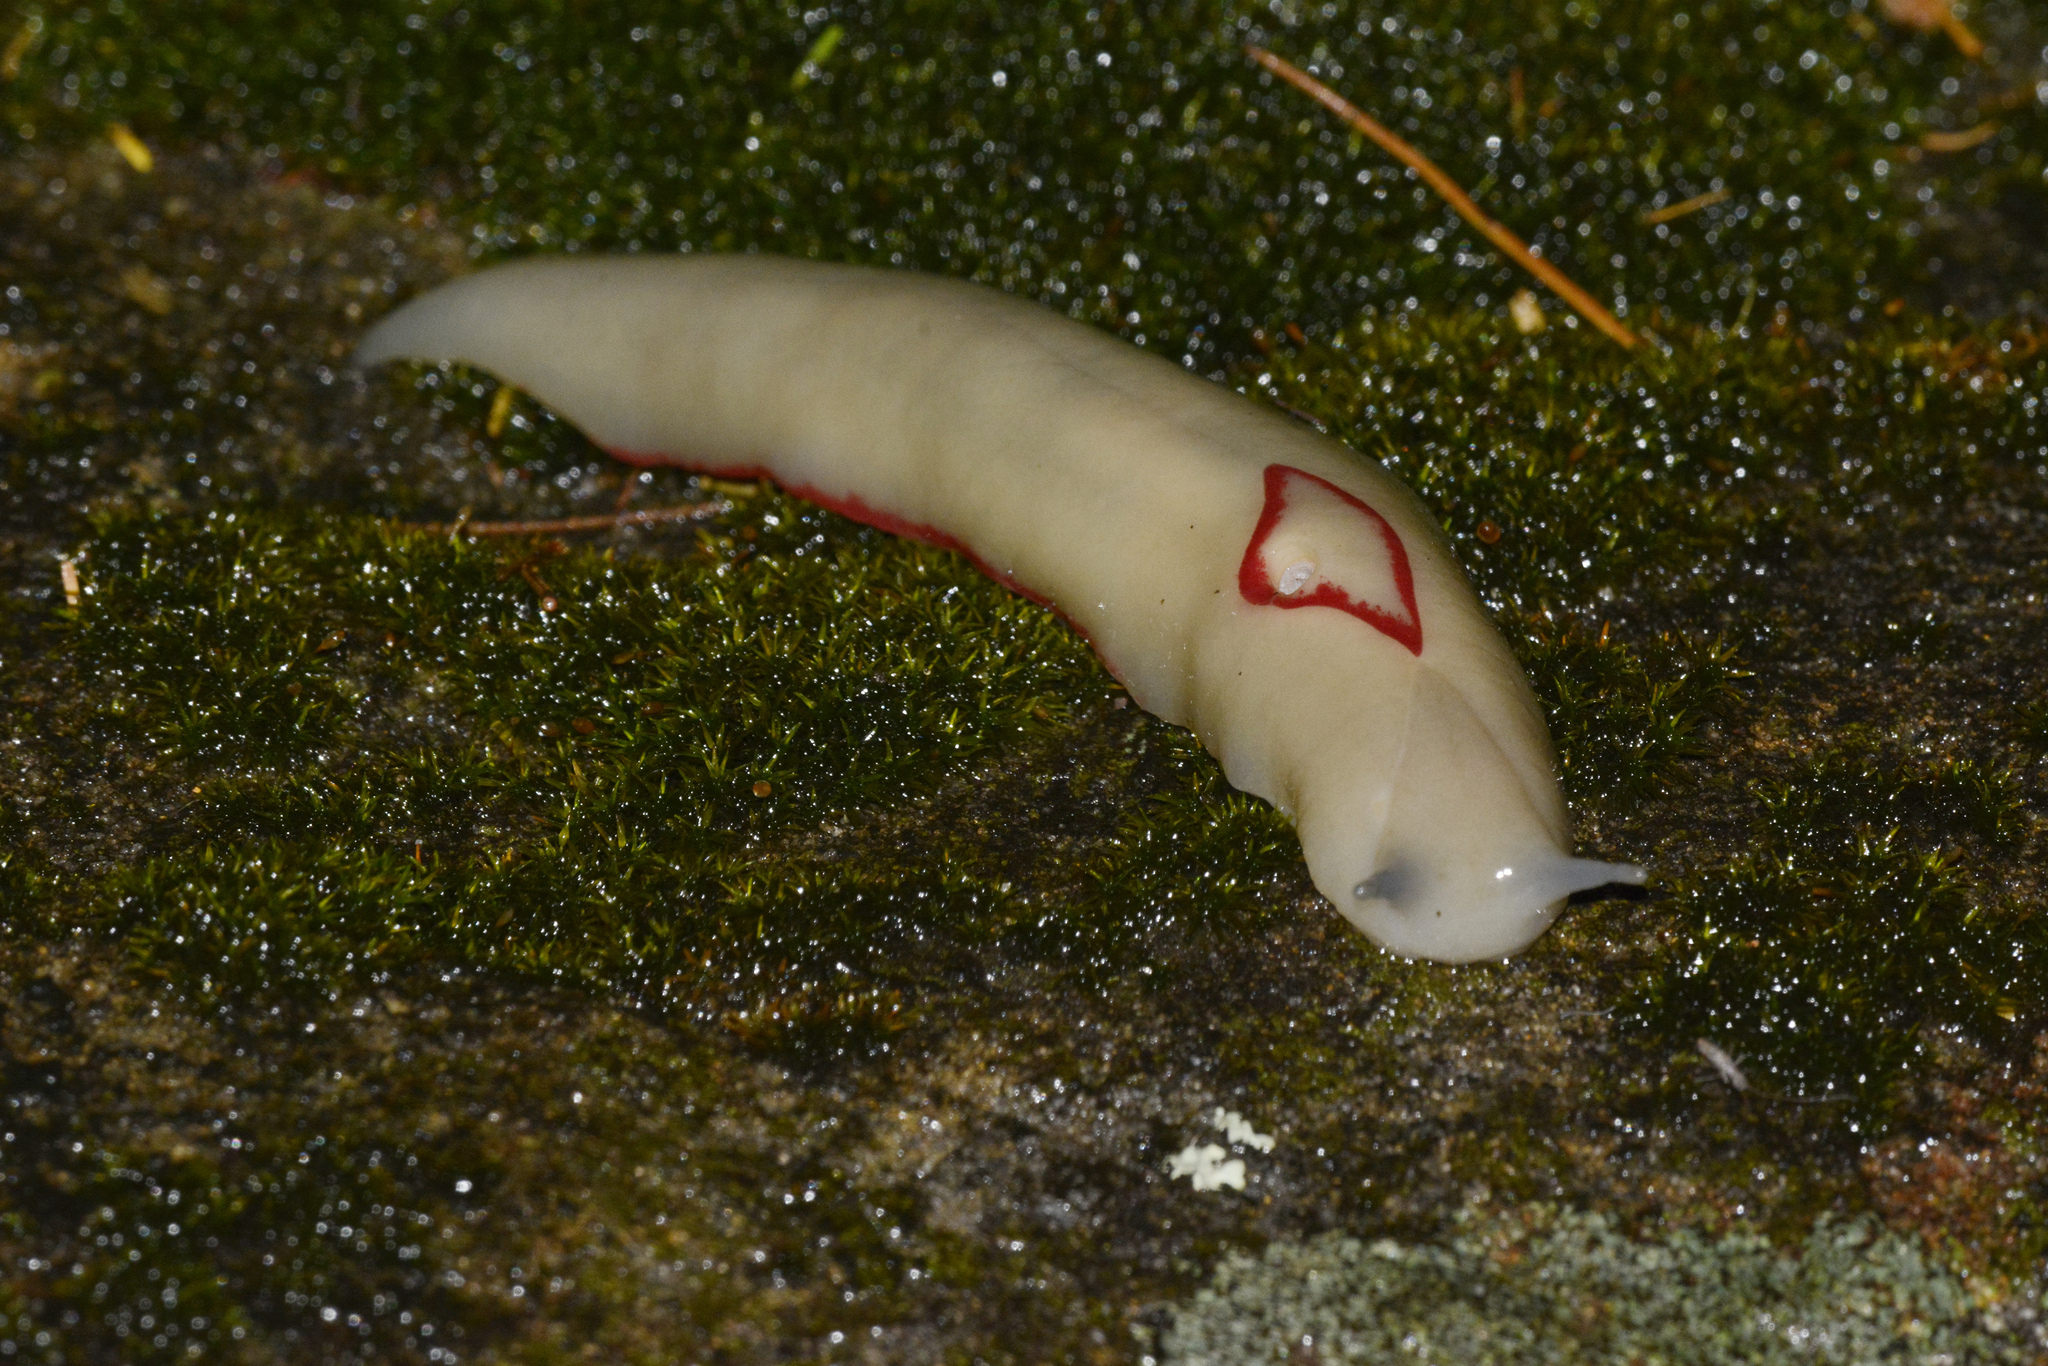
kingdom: Animalia
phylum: Mollusca
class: Gastropoda
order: Stylommatophora
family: Athoracophoridae
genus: Triboniophorus
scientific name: Triboniophorus graeffei
